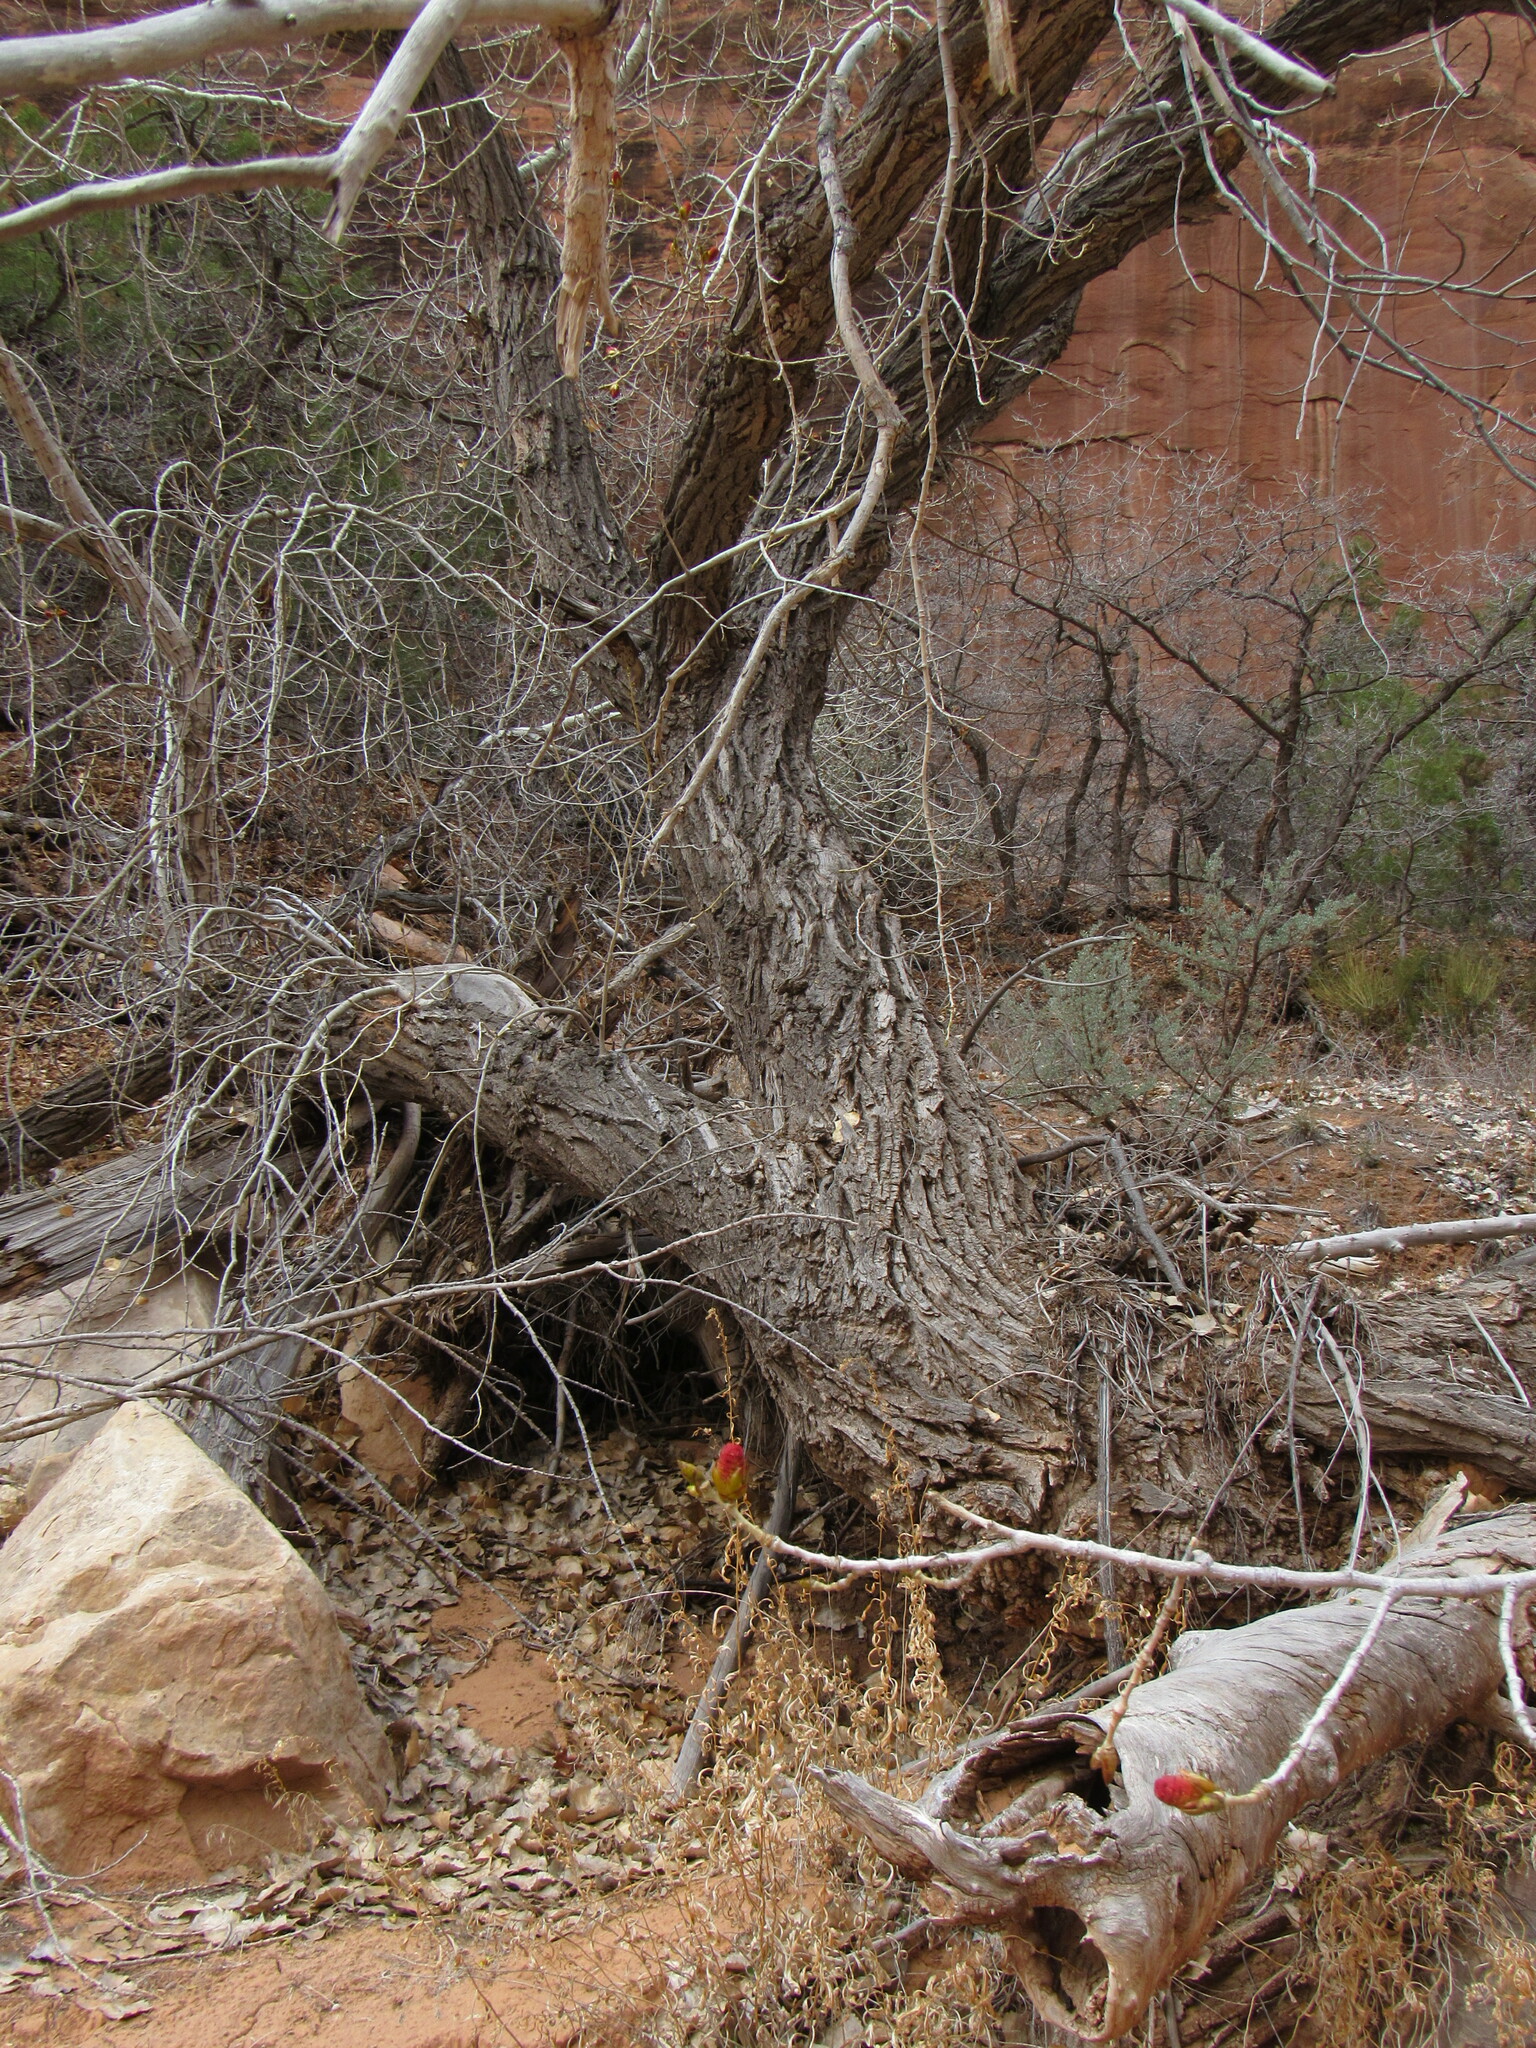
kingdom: Plantae
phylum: Tracheophyta
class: Magnoliopsida
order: Malpighiales
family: Salicaceae
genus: Populus
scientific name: Populus fremontii
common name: Fremont's cottonwood
